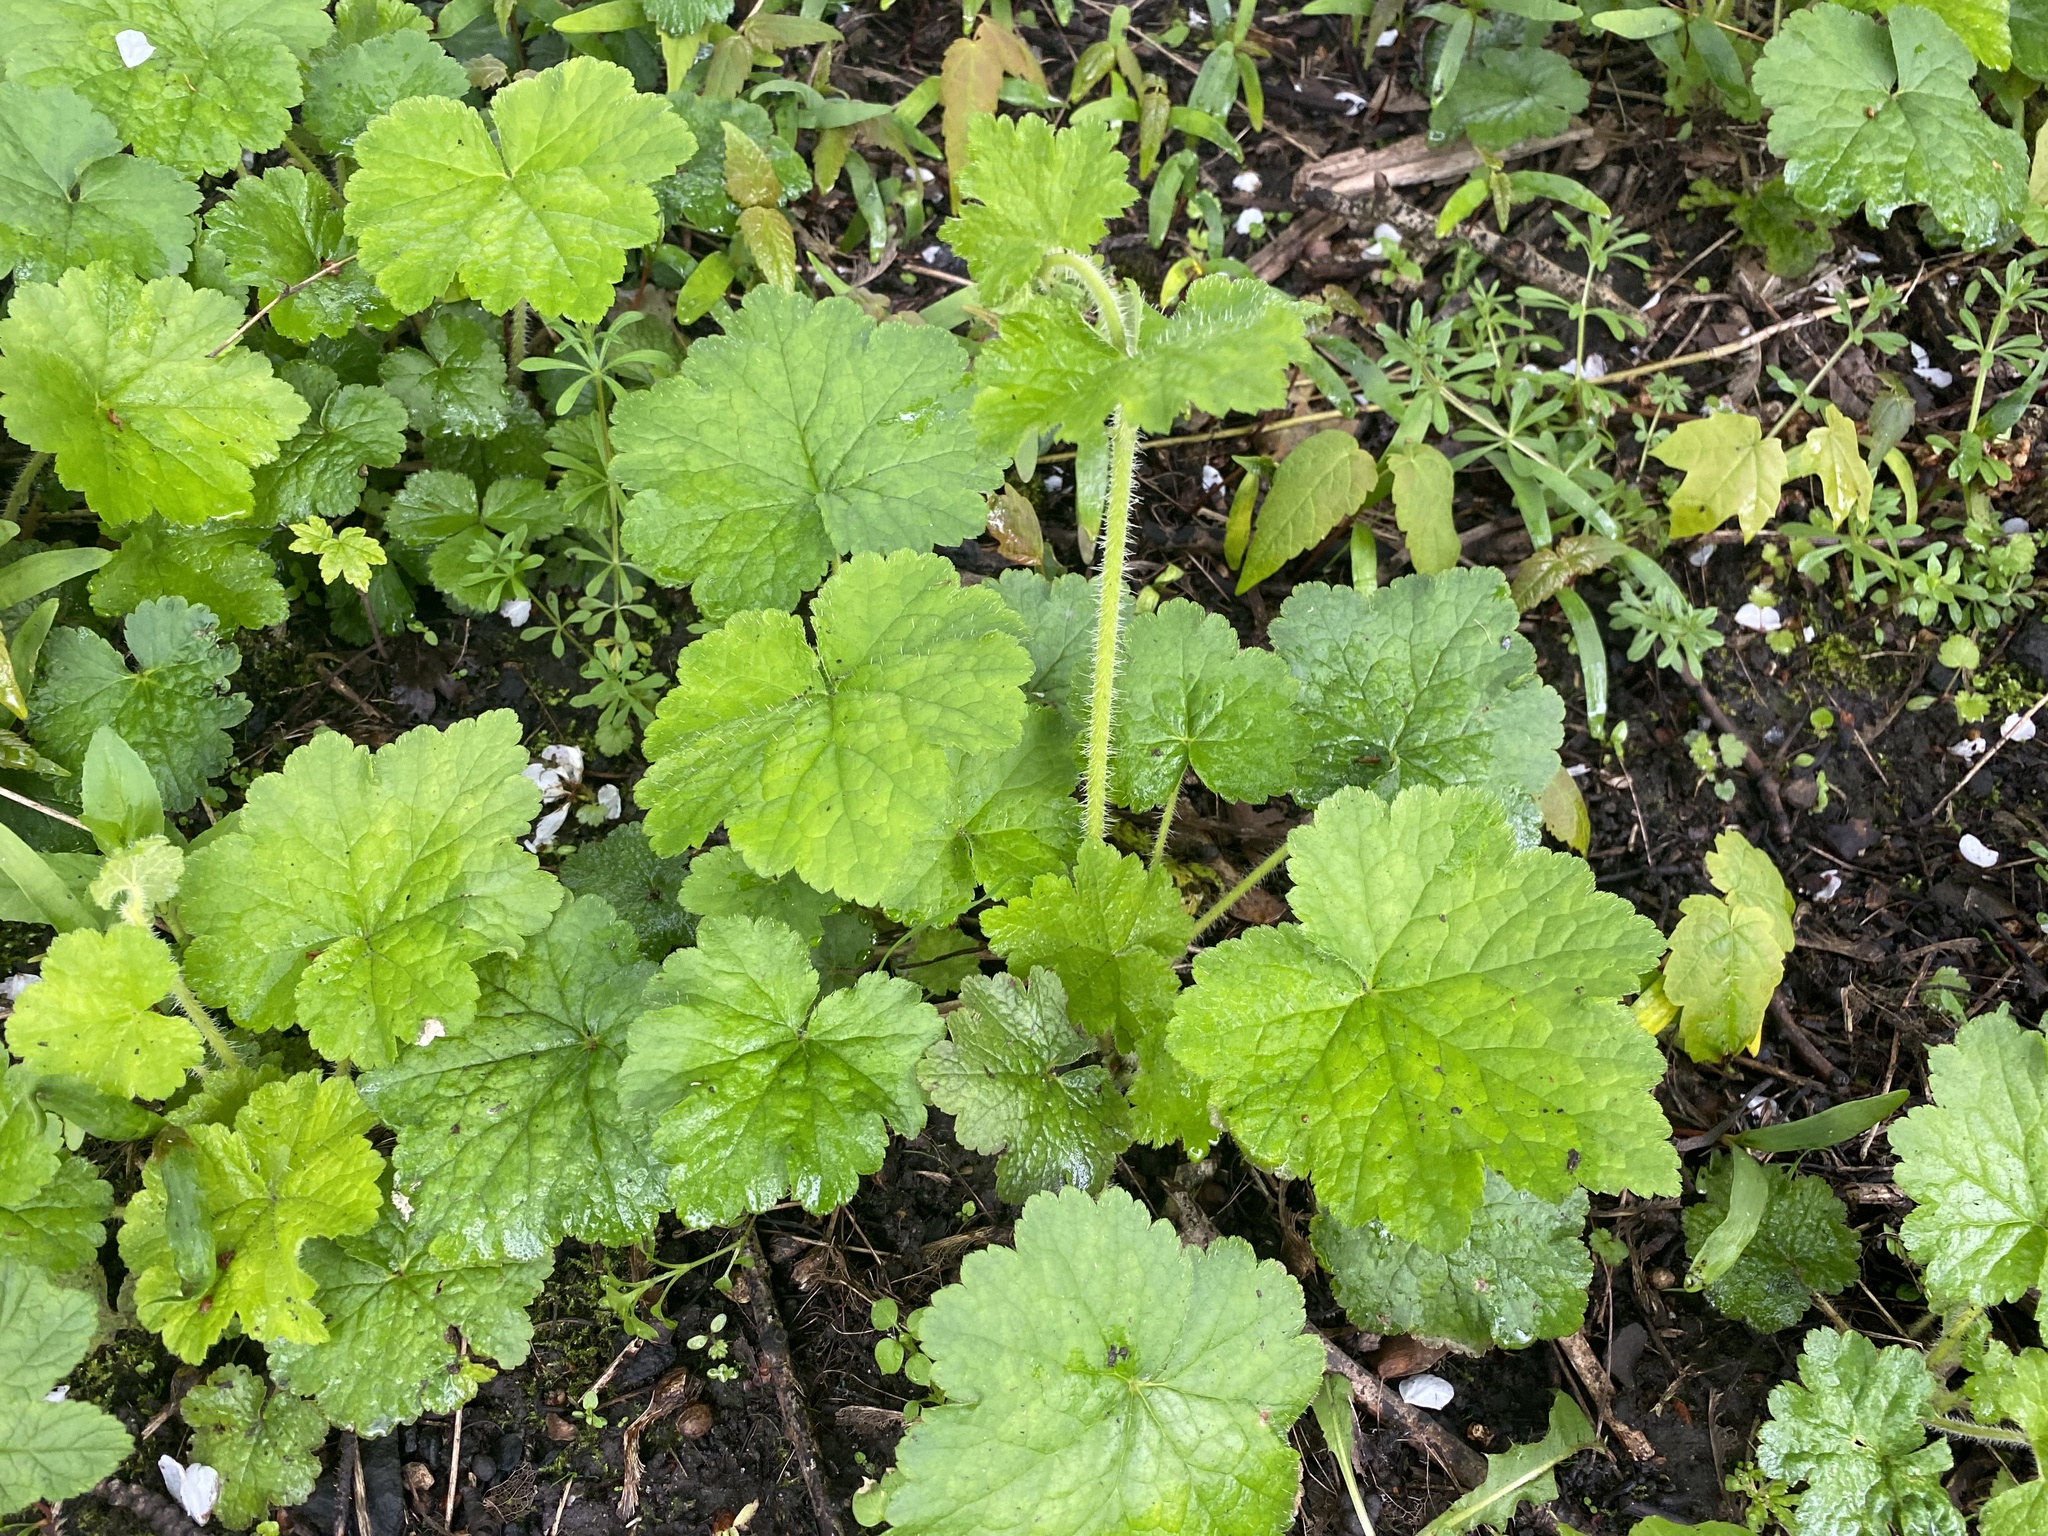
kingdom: Plantae
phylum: Tracheophyta
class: Magnoliopsida
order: Saxifragales
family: Saxifragaceae
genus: Tellima
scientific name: Tellima grandiflora
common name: Fringecups
